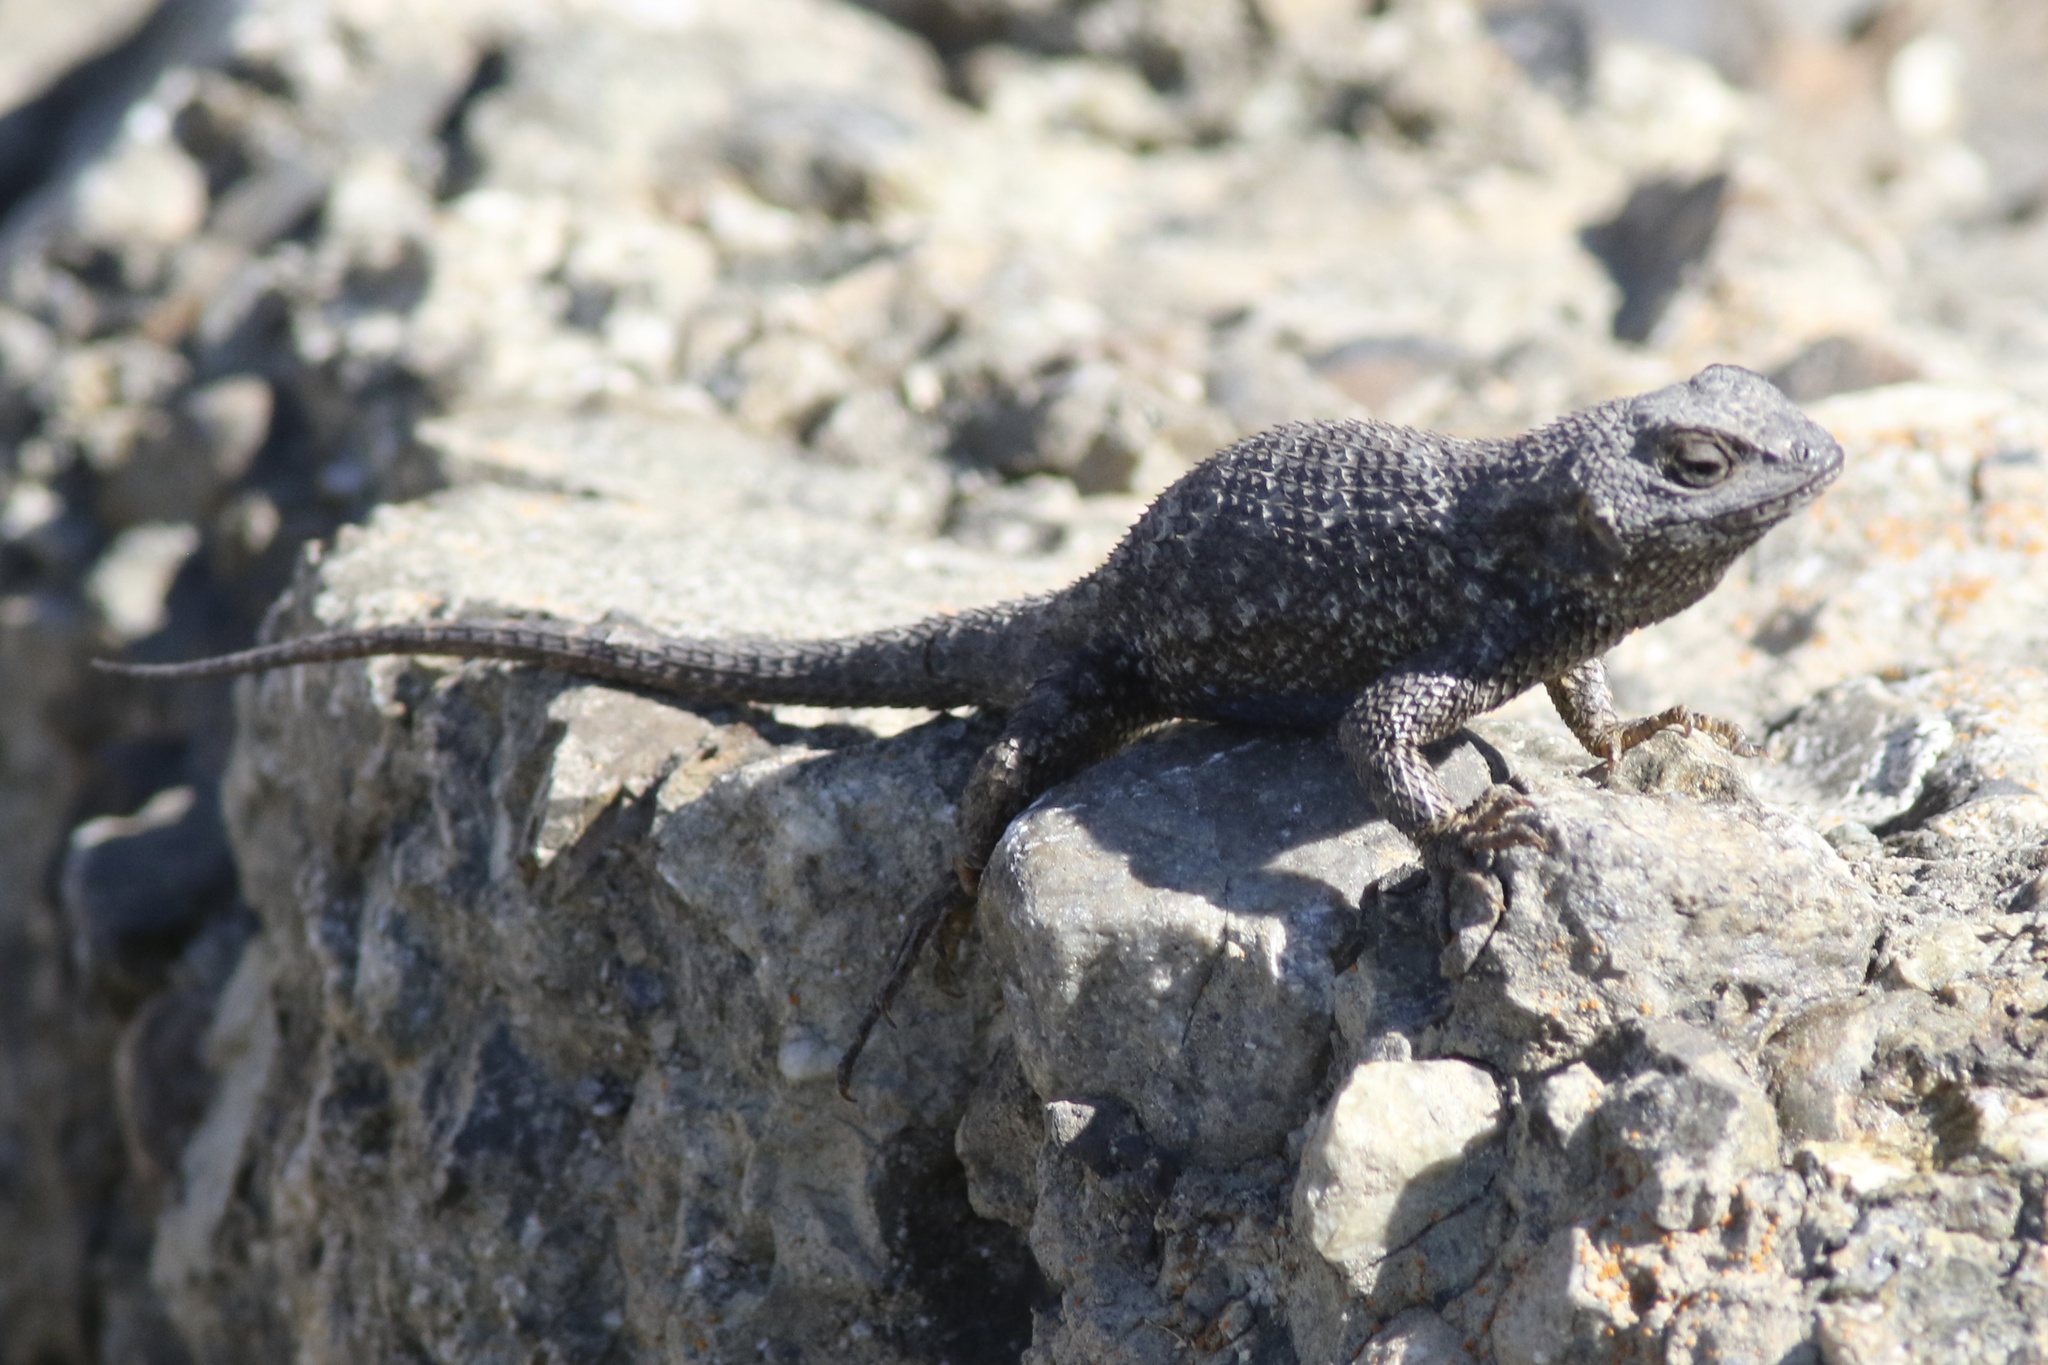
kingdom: Animalia
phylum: Chordata
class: Squamata
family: Phrynosomatidae
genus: Sceloporus
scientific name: Sceloporus occidentalis
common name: Western fence lizard
